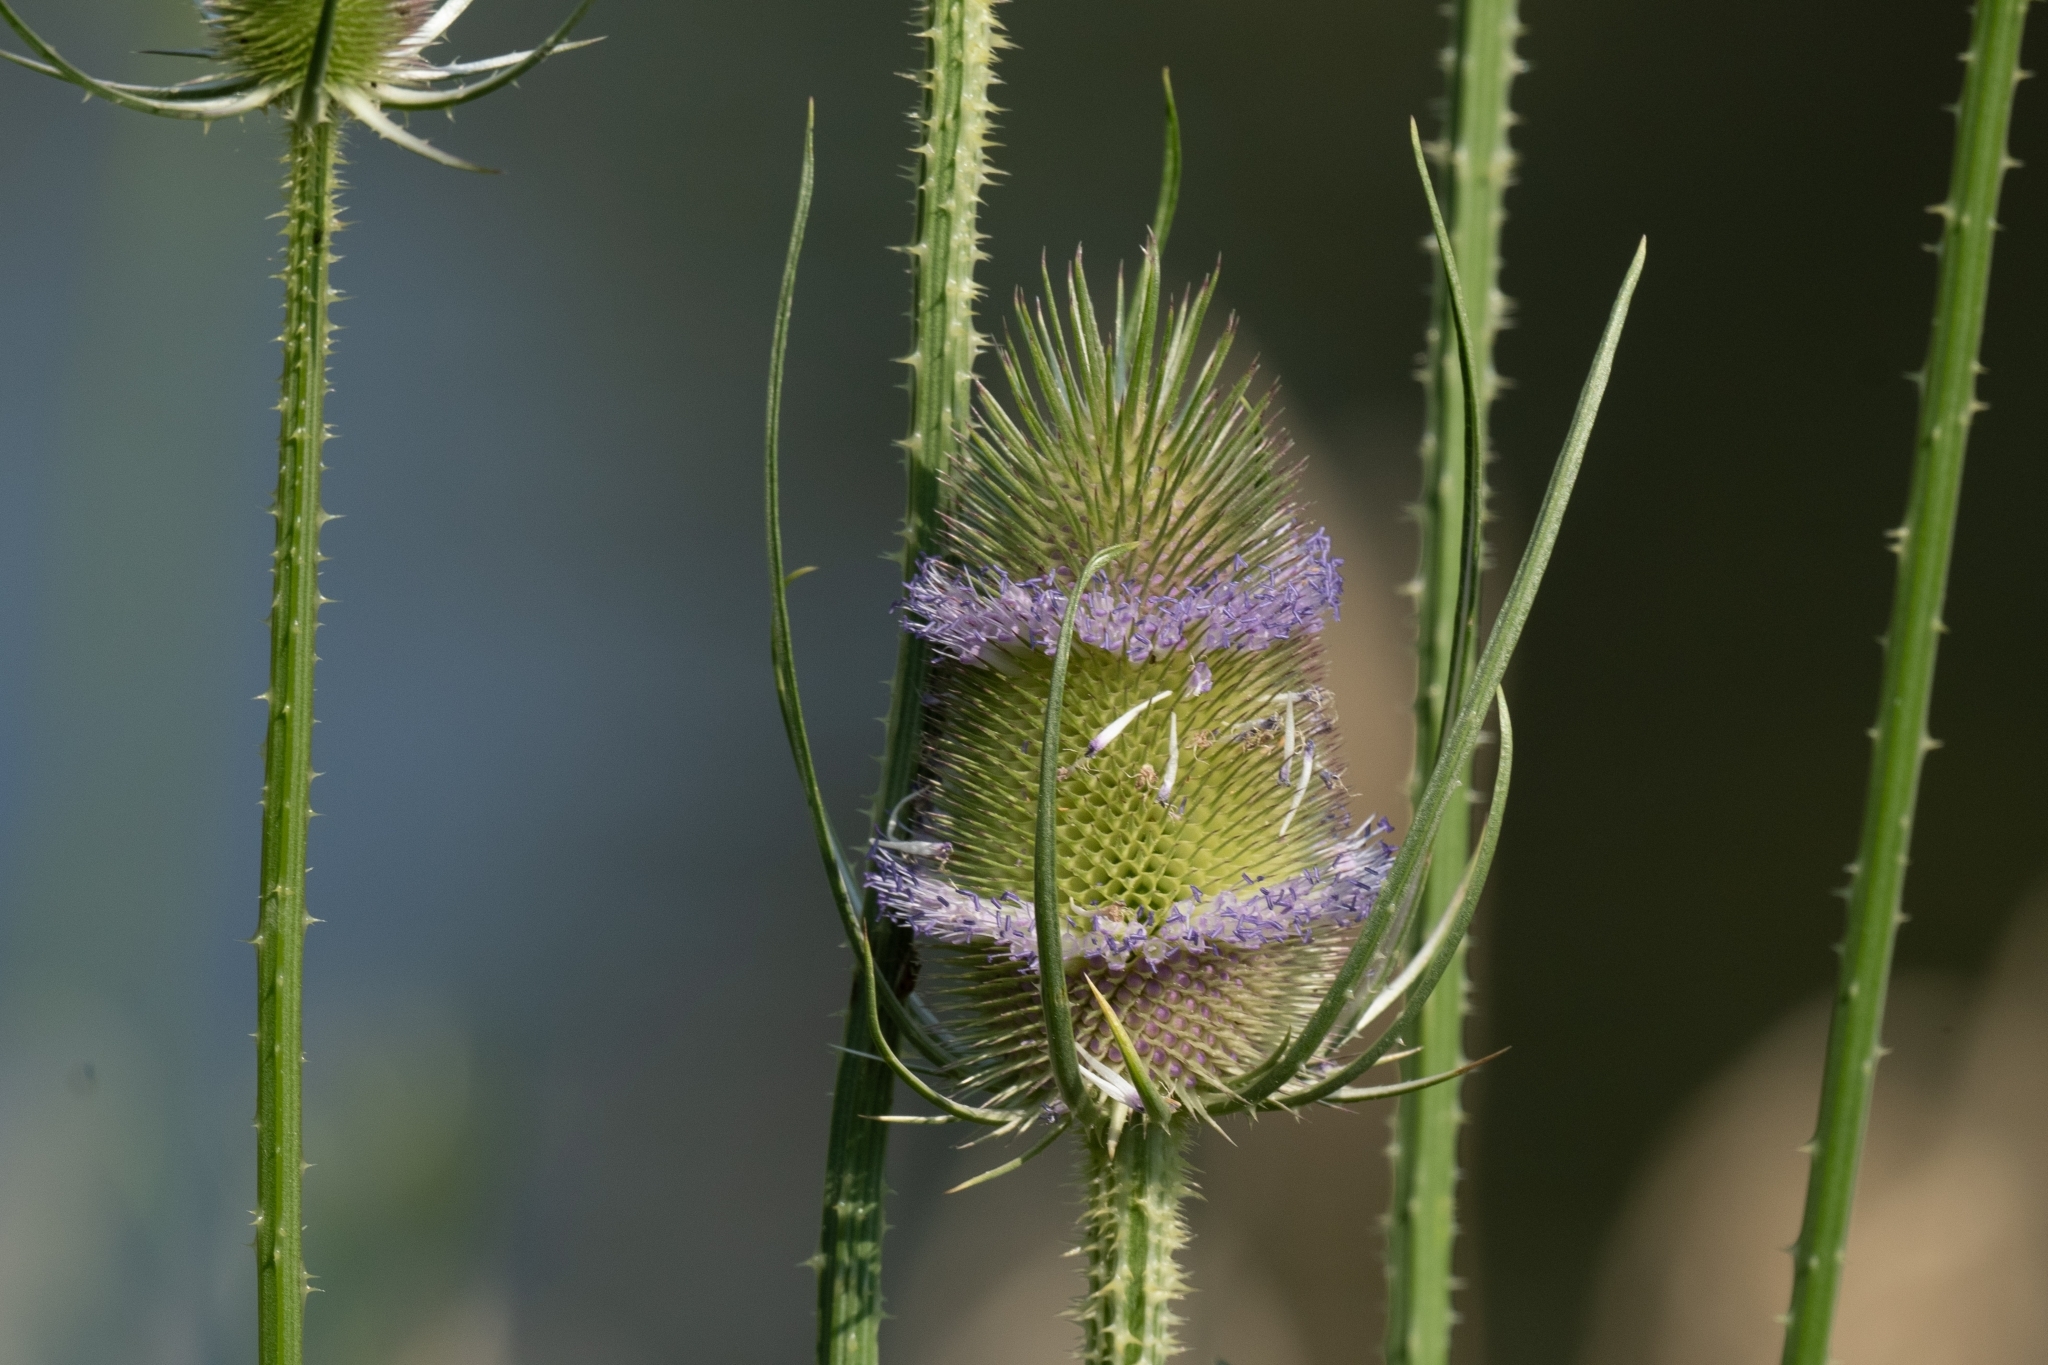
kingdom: Plantae
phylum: Tracheophyta
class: Magnoliopsida
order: Dipsacales
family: Caprifoliaceae
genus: Dipsacus
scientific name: Dipsacus fullonum
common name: Teasel
